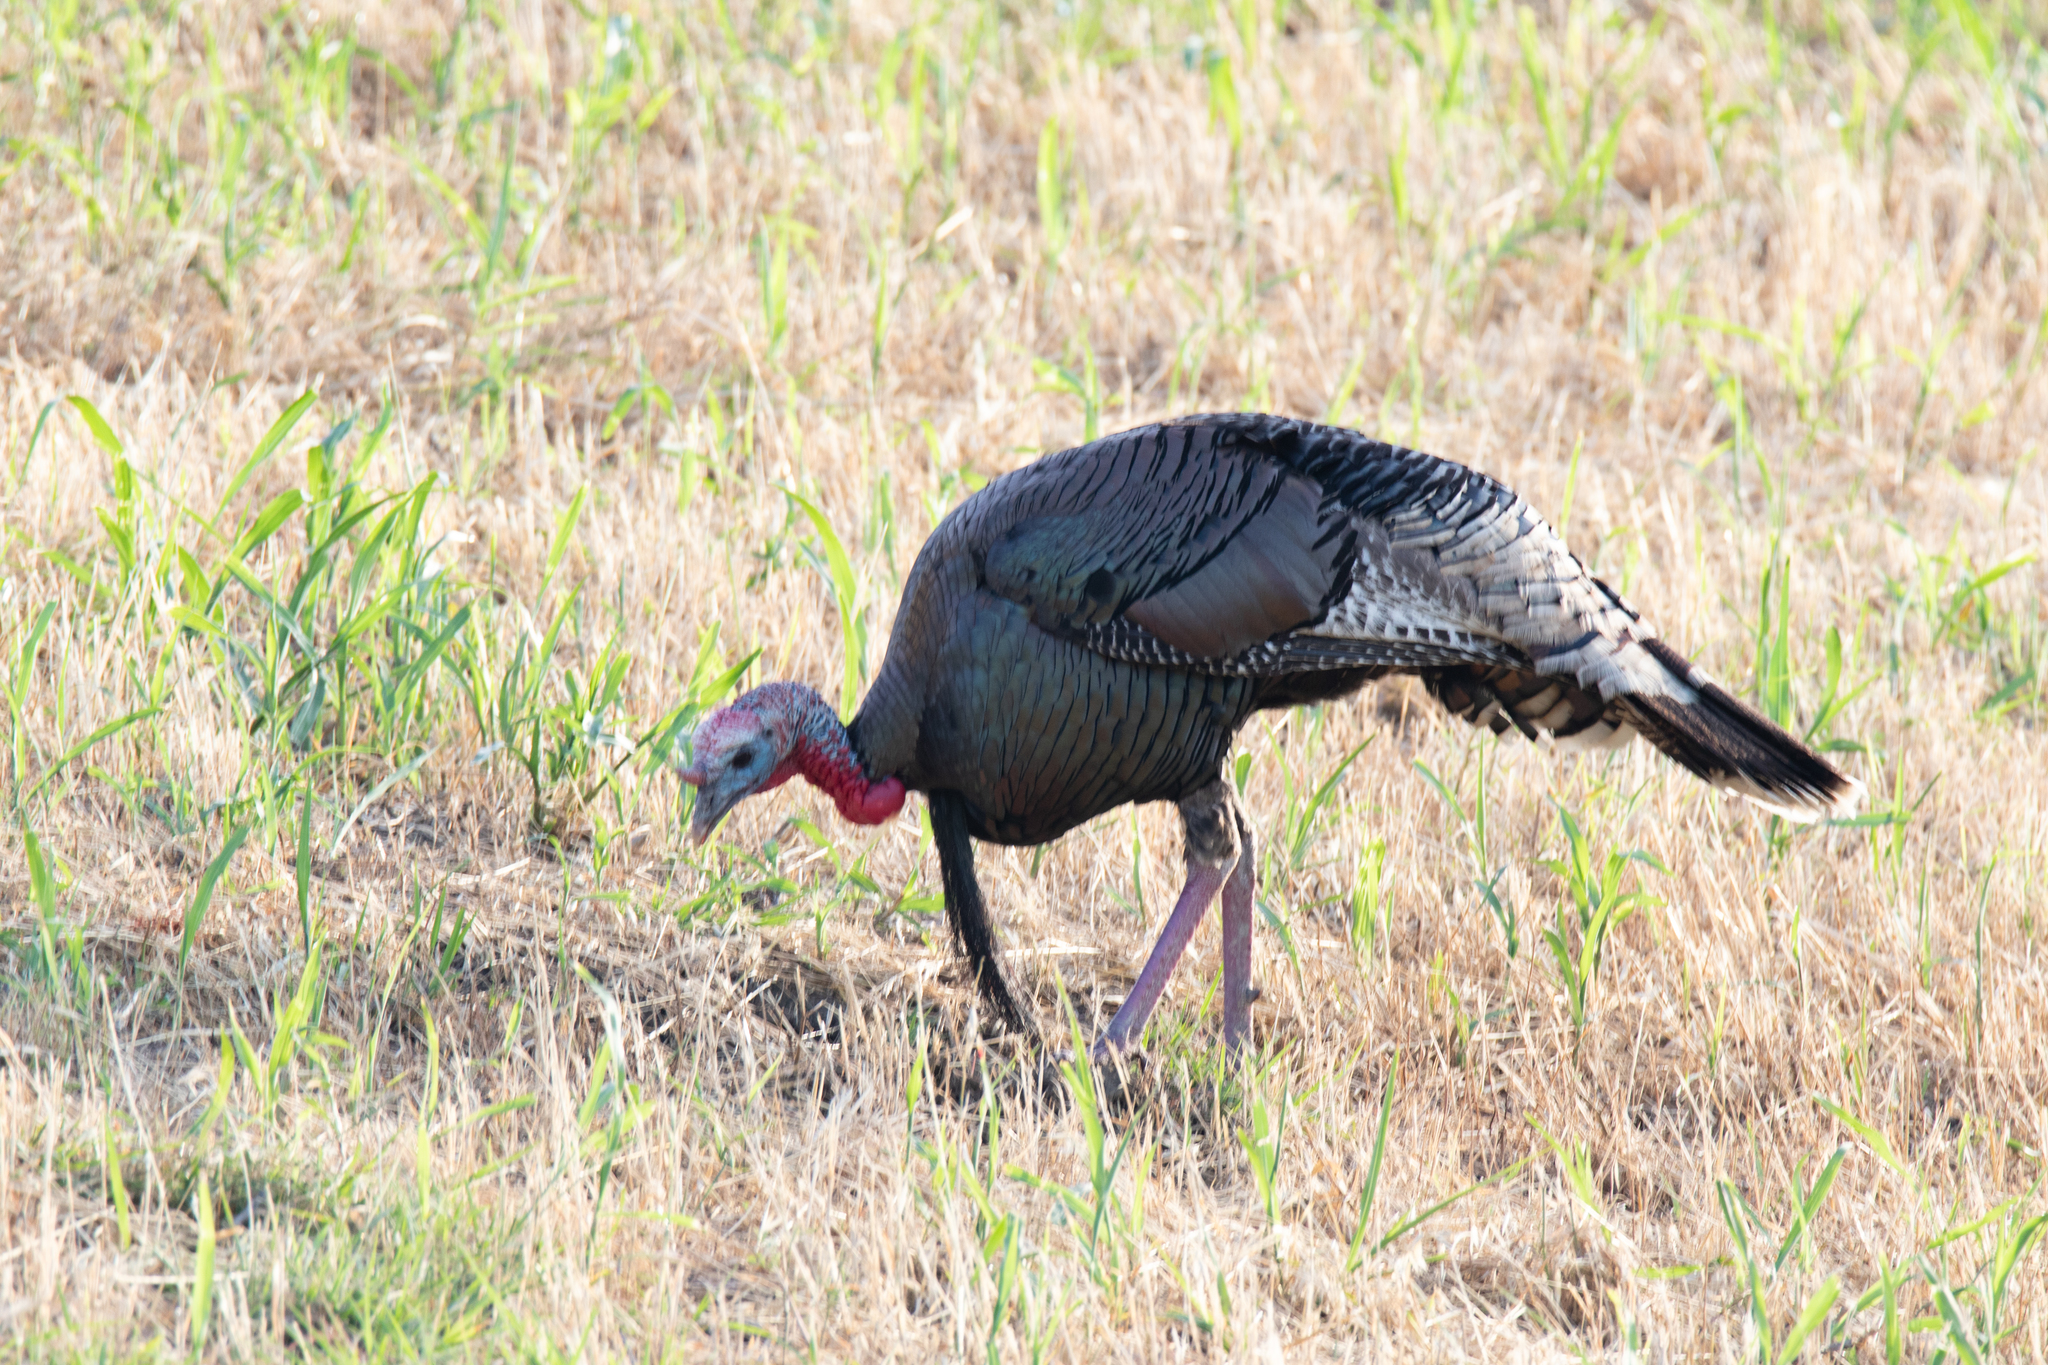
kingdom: Animalia
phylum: Chordata
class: Aves
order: Galliformes
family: Phasianidae
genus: Meleagris
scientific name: Meleagris gallopavo
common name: Wild turkey
